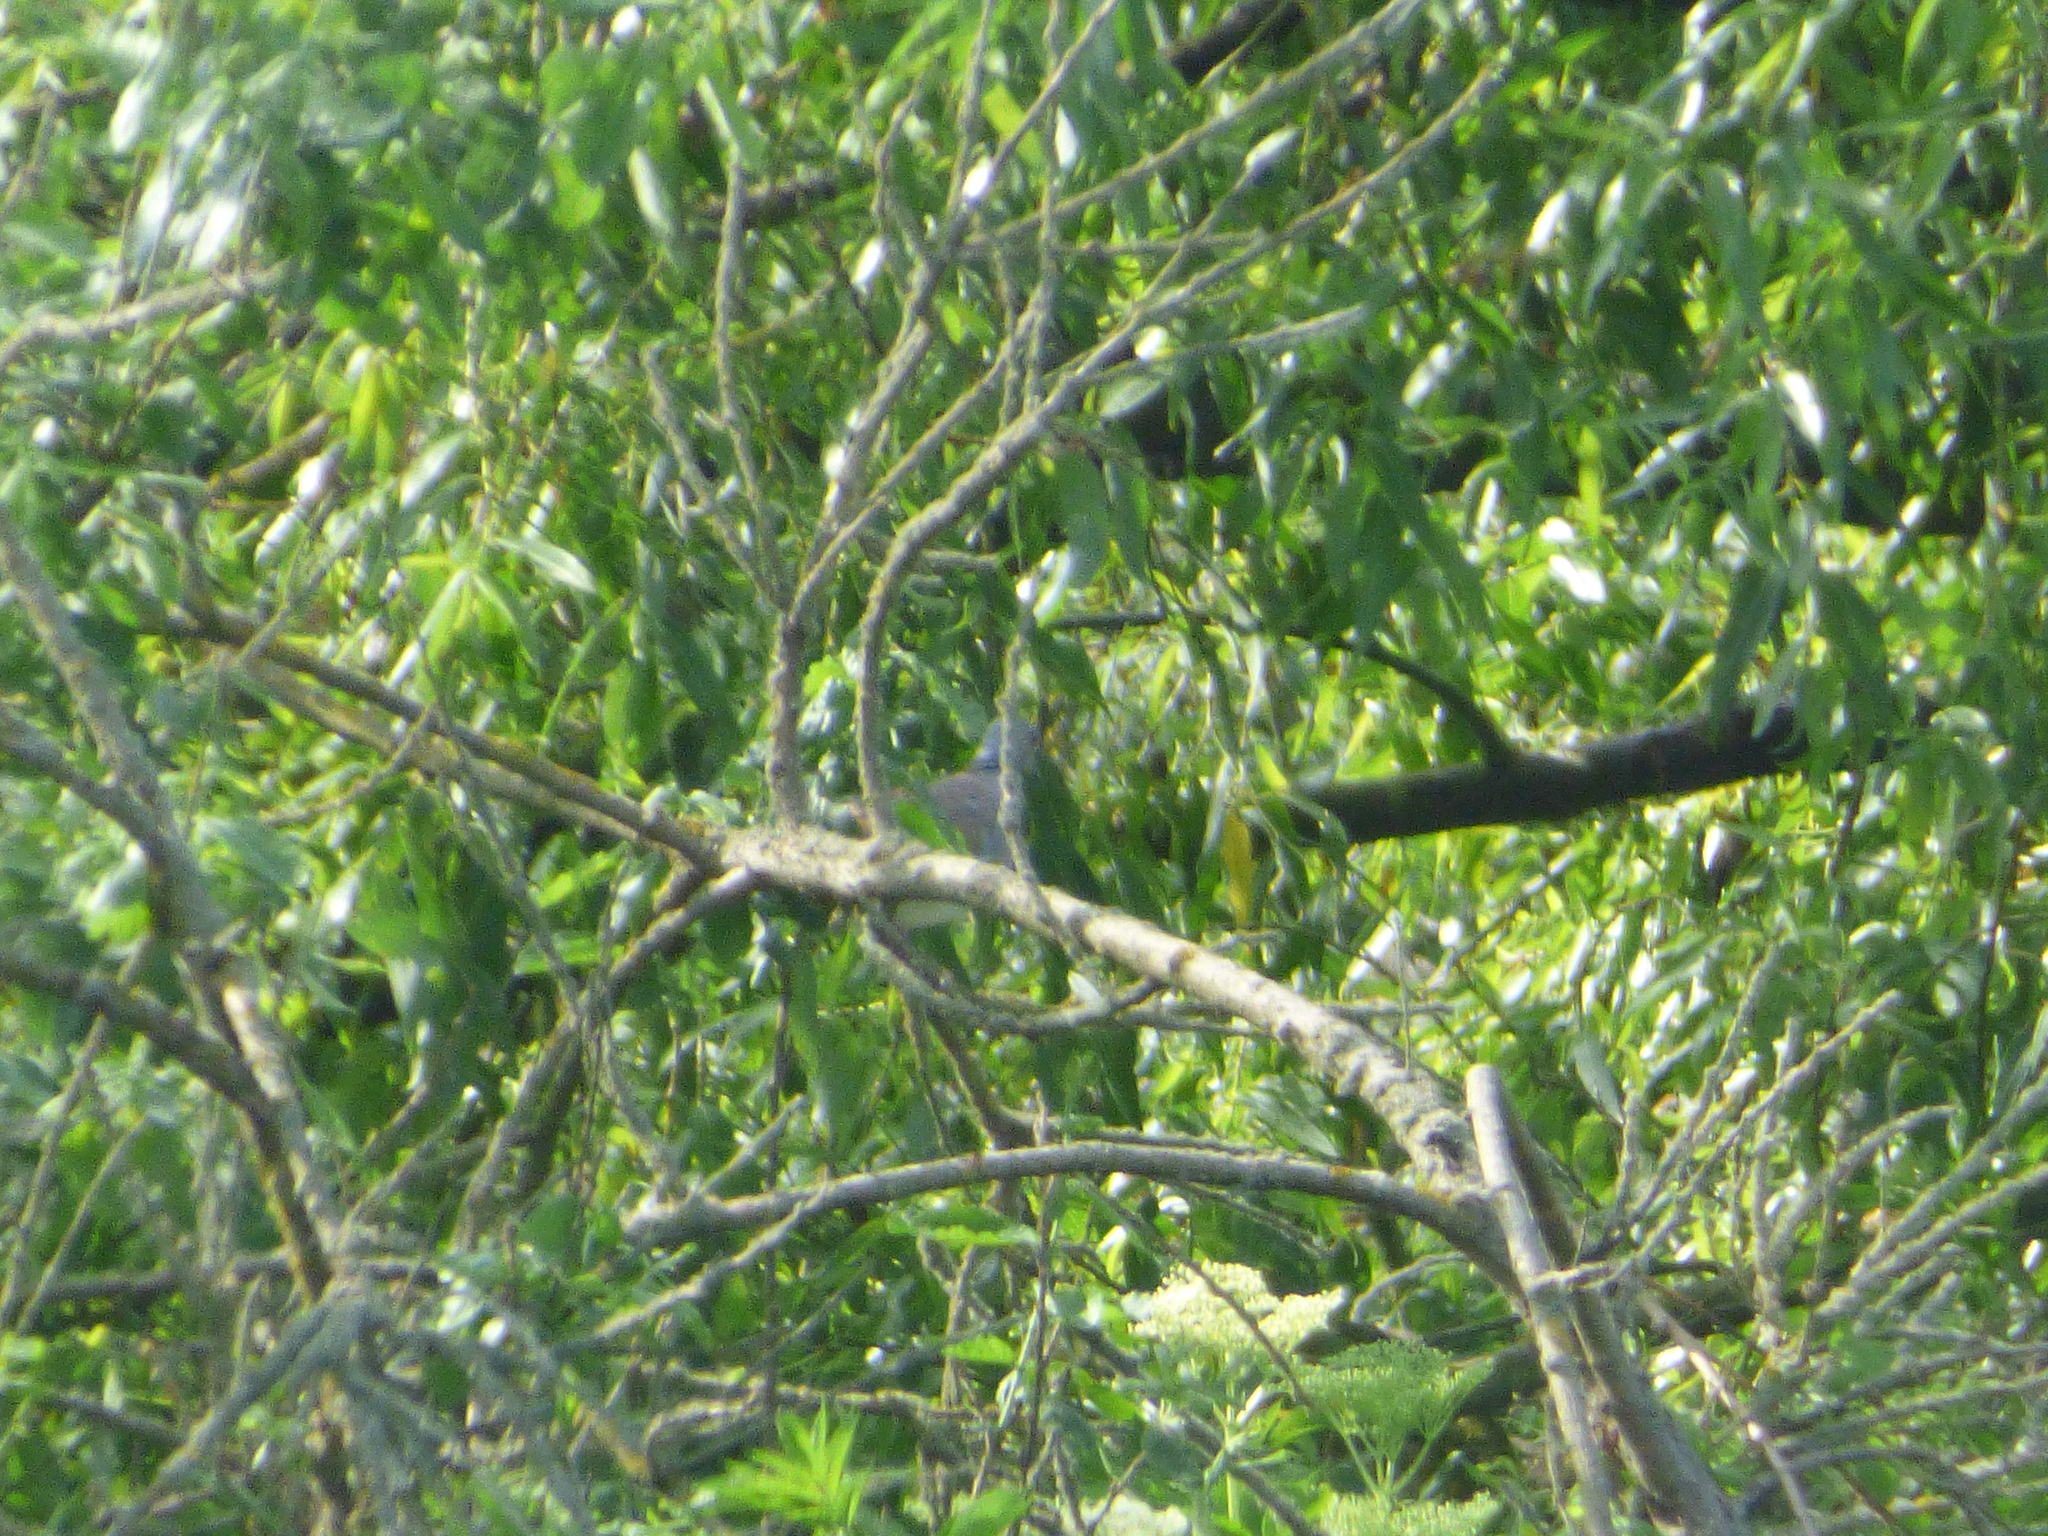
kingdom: Animalia
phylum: Chordata
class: Aves
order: Columbiformes
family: Columbidae
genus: Streptopelia
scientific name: Streptopelia turtur
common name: European turtle dove
